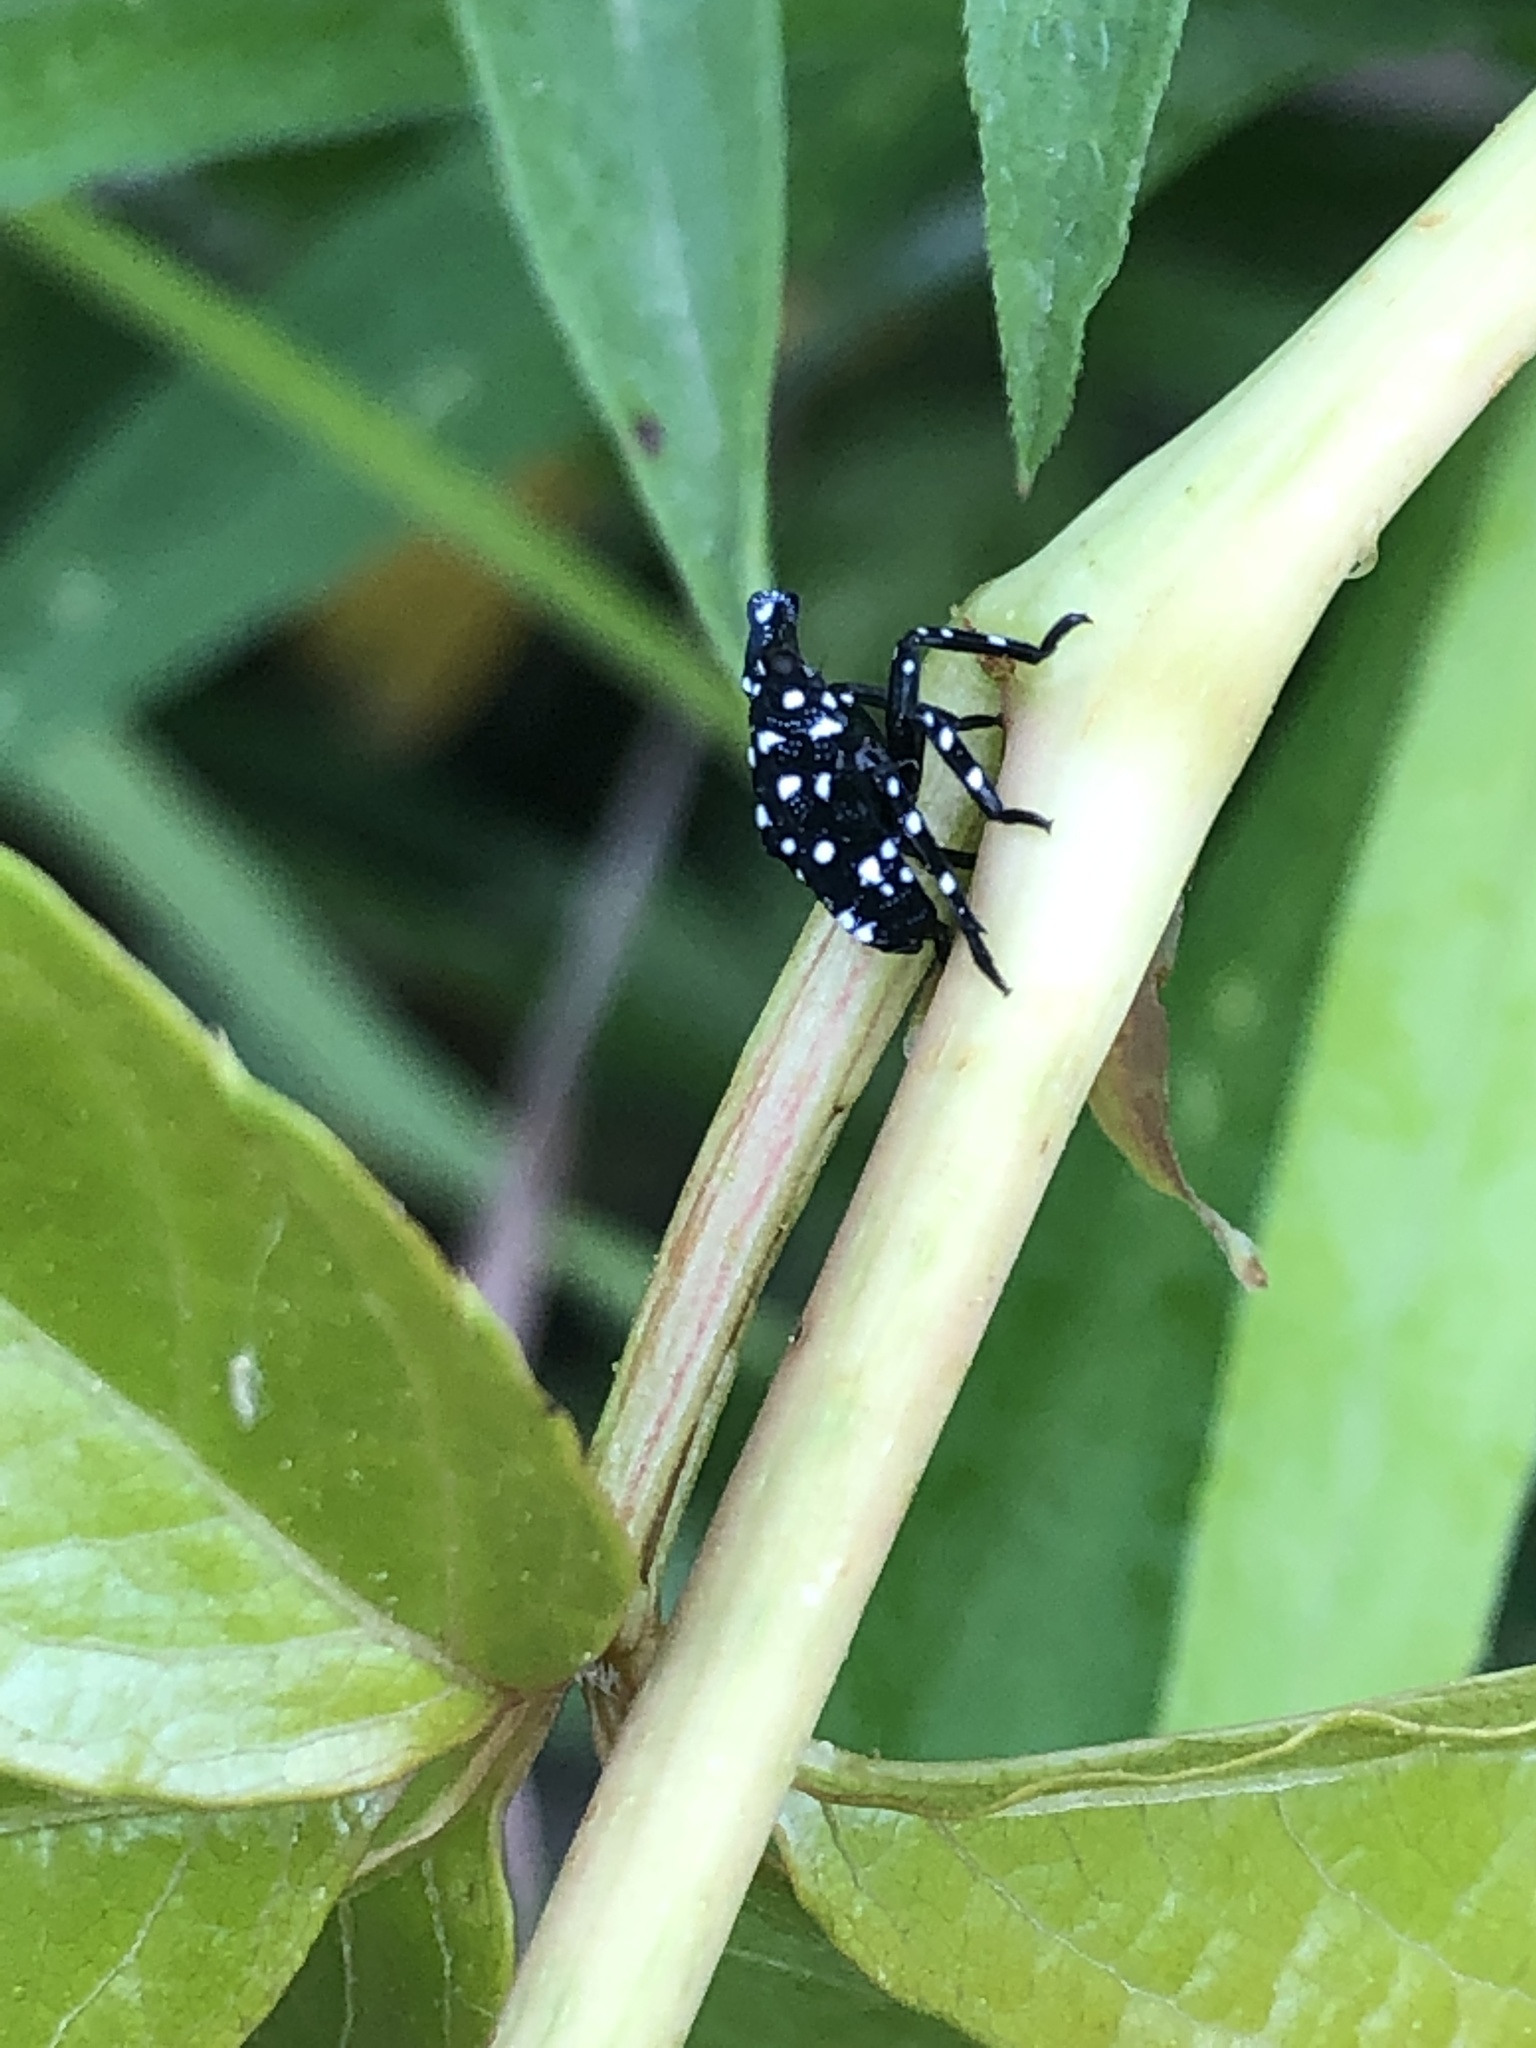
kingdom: Animalia
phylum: Arthropoda
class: Insecta
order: Hemiptera
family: Fulgoridae
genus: Lycorma
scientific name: Lycorma delicatula
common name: Spotted lanternfly
